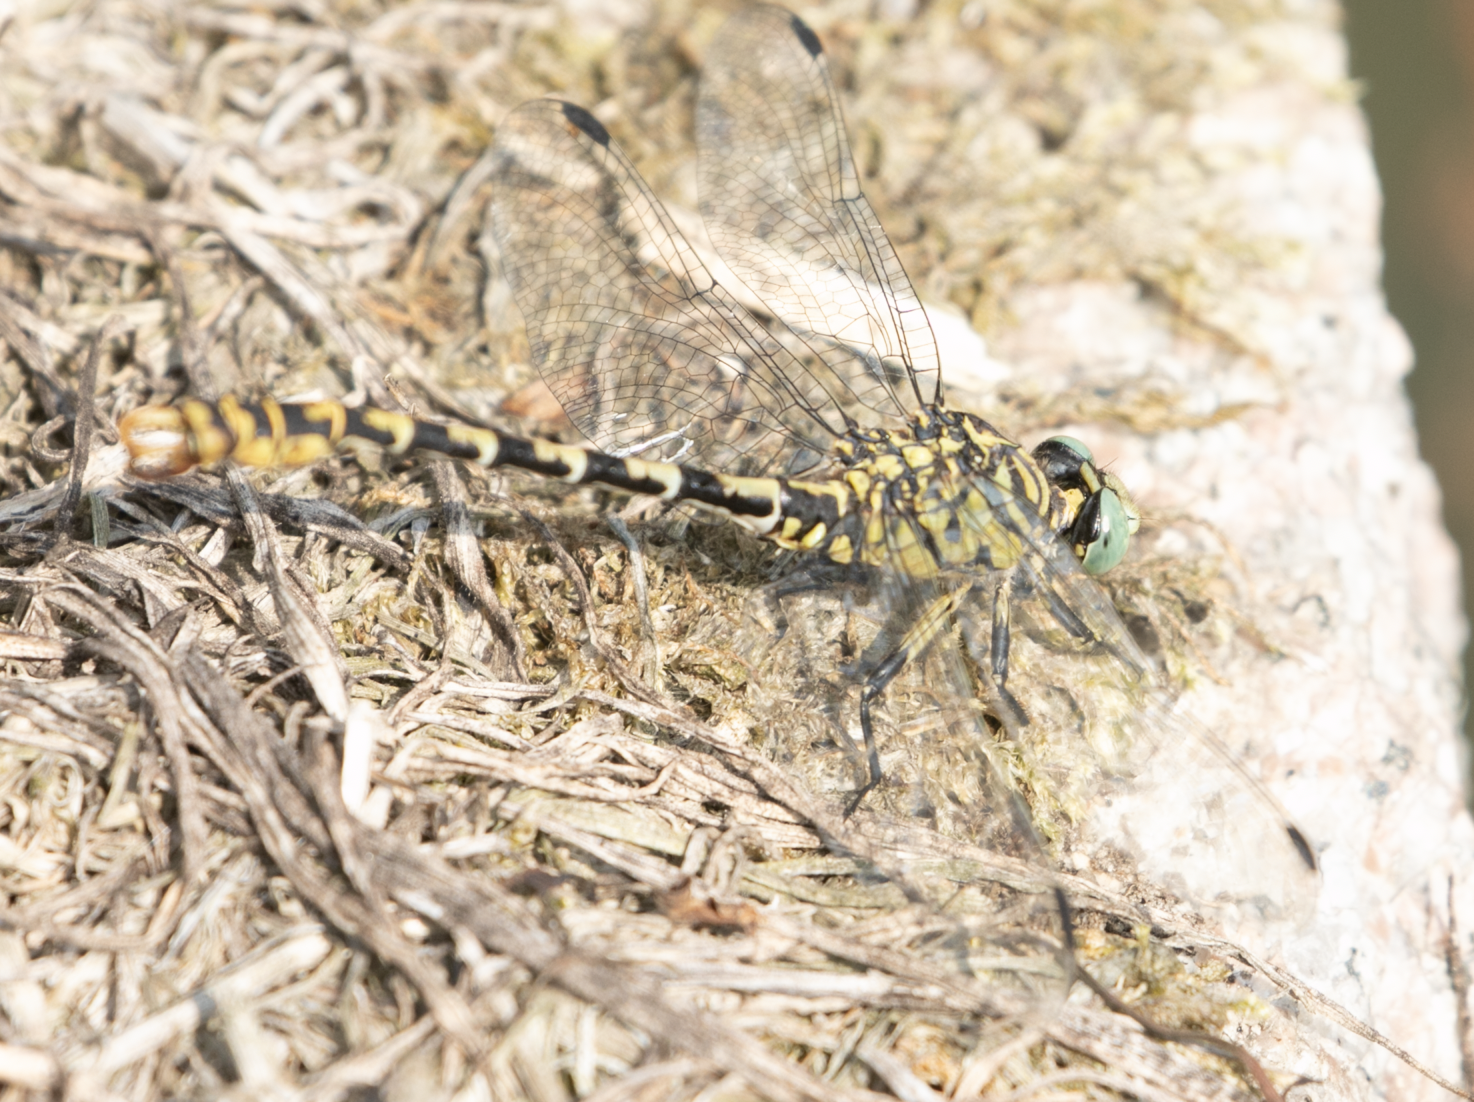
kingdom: Animalia
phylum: Arthropoda
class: Insecta
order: Odonata
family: Gomphidae
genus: Onychogomphus
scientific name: Onychogomphus forcipatus
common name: Small pincertail
